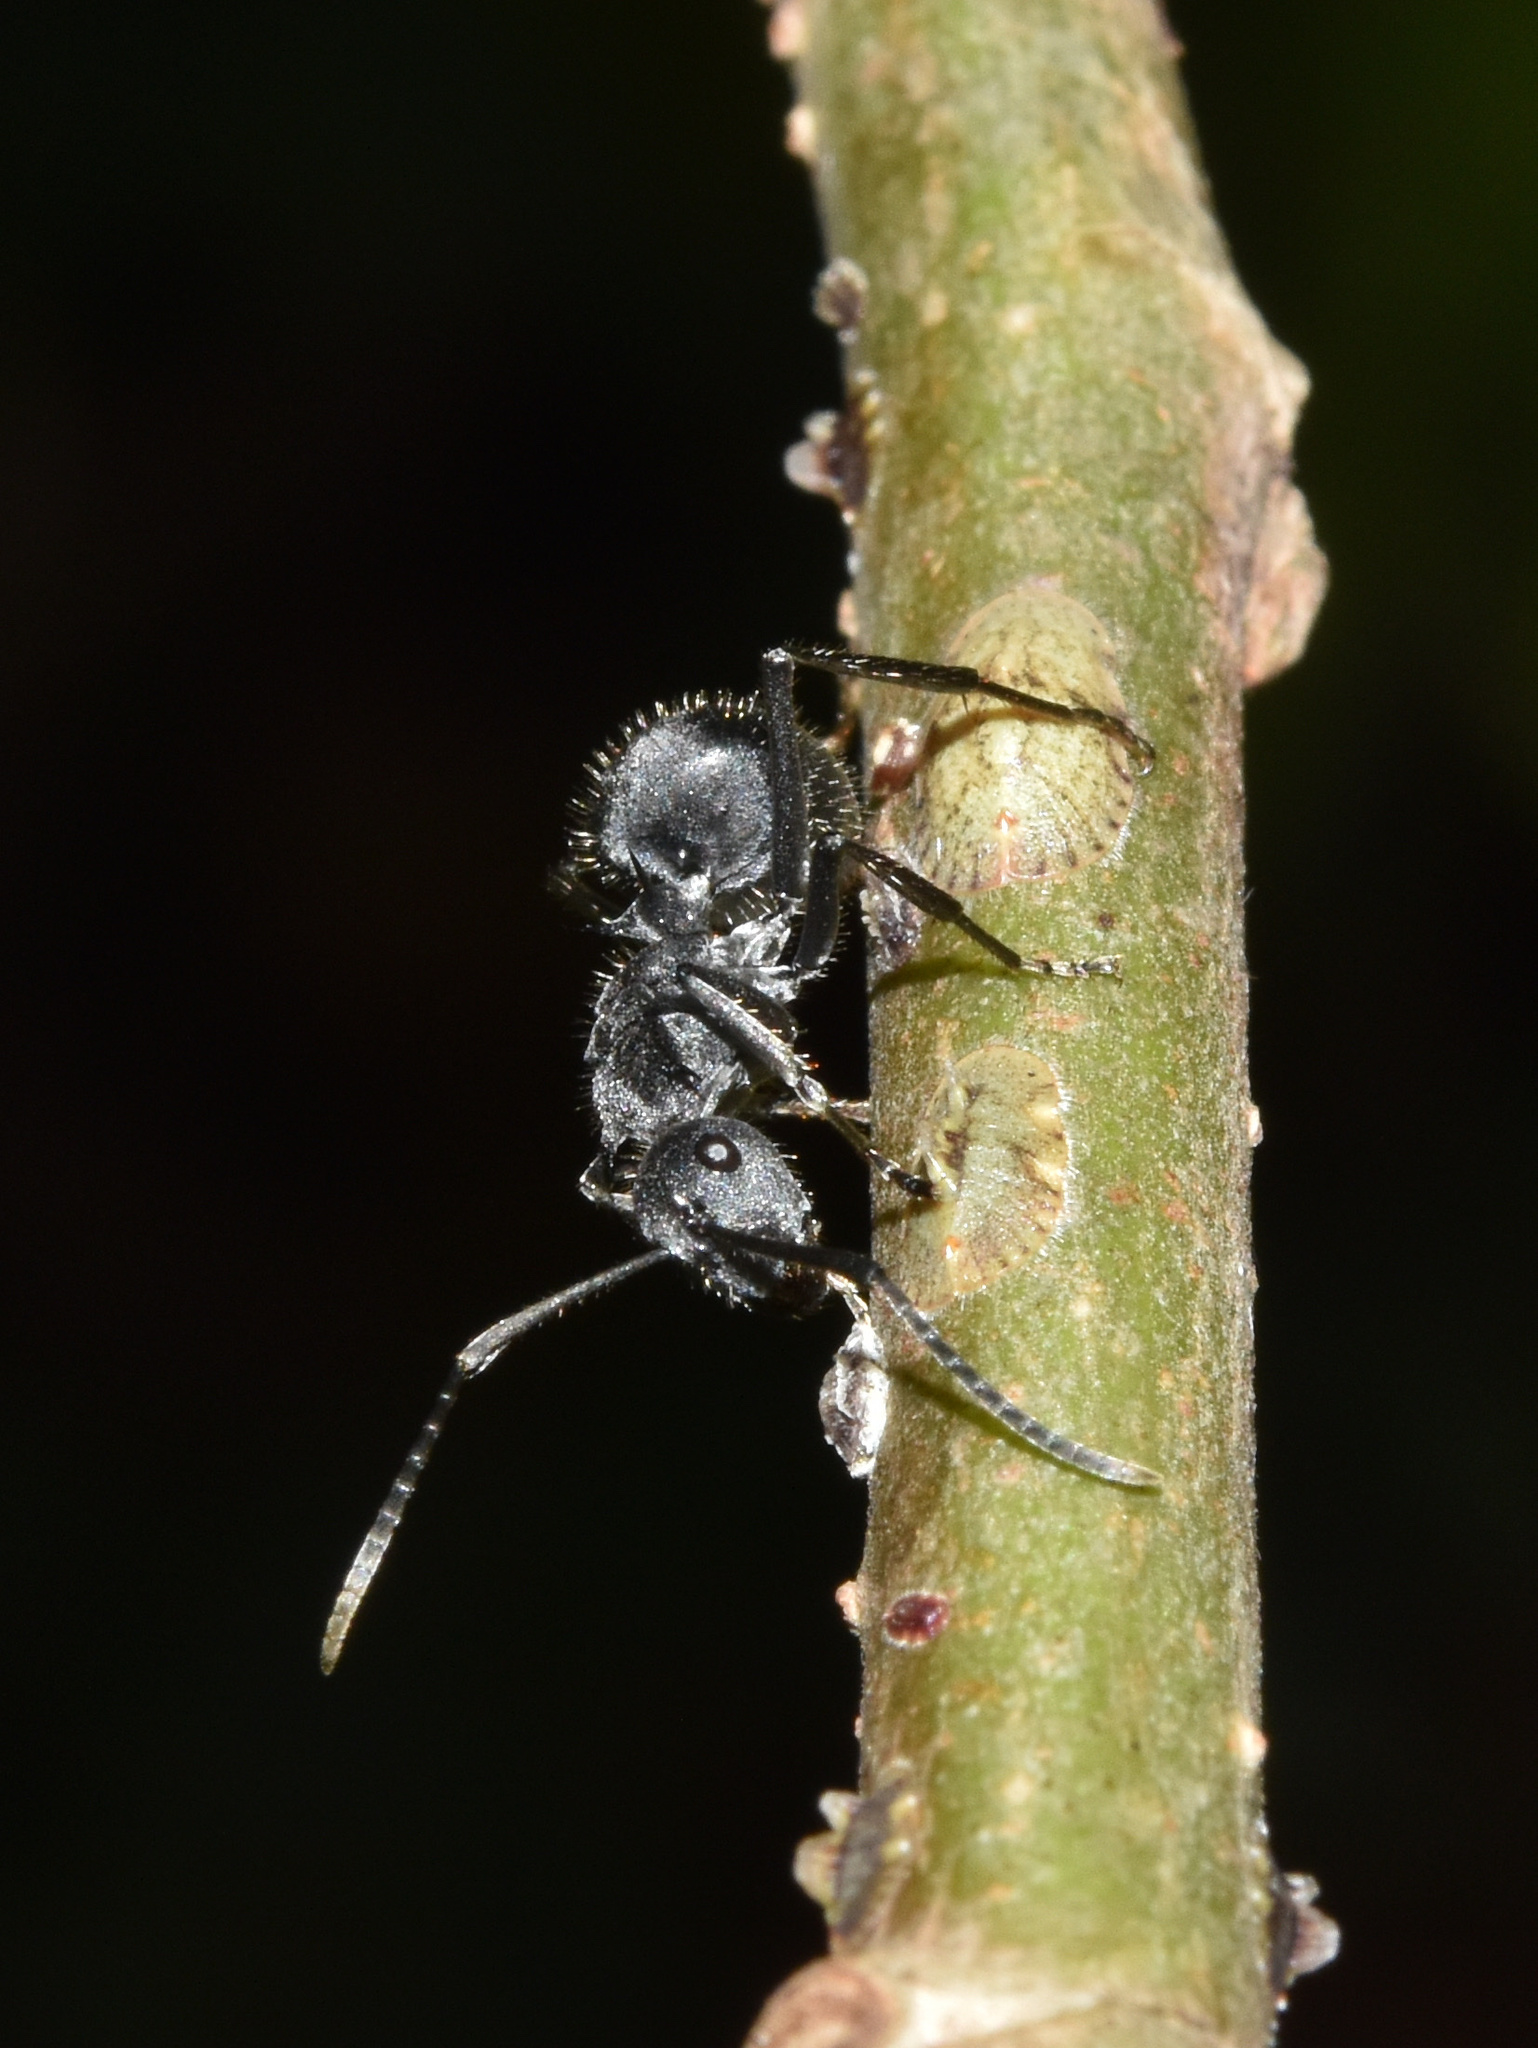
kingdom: Animalia
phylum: Arthropoda
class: Insecta
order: Hymenoptera
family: Formicidae
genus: Polyrhachis
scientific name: Polyrhachis schistacea
